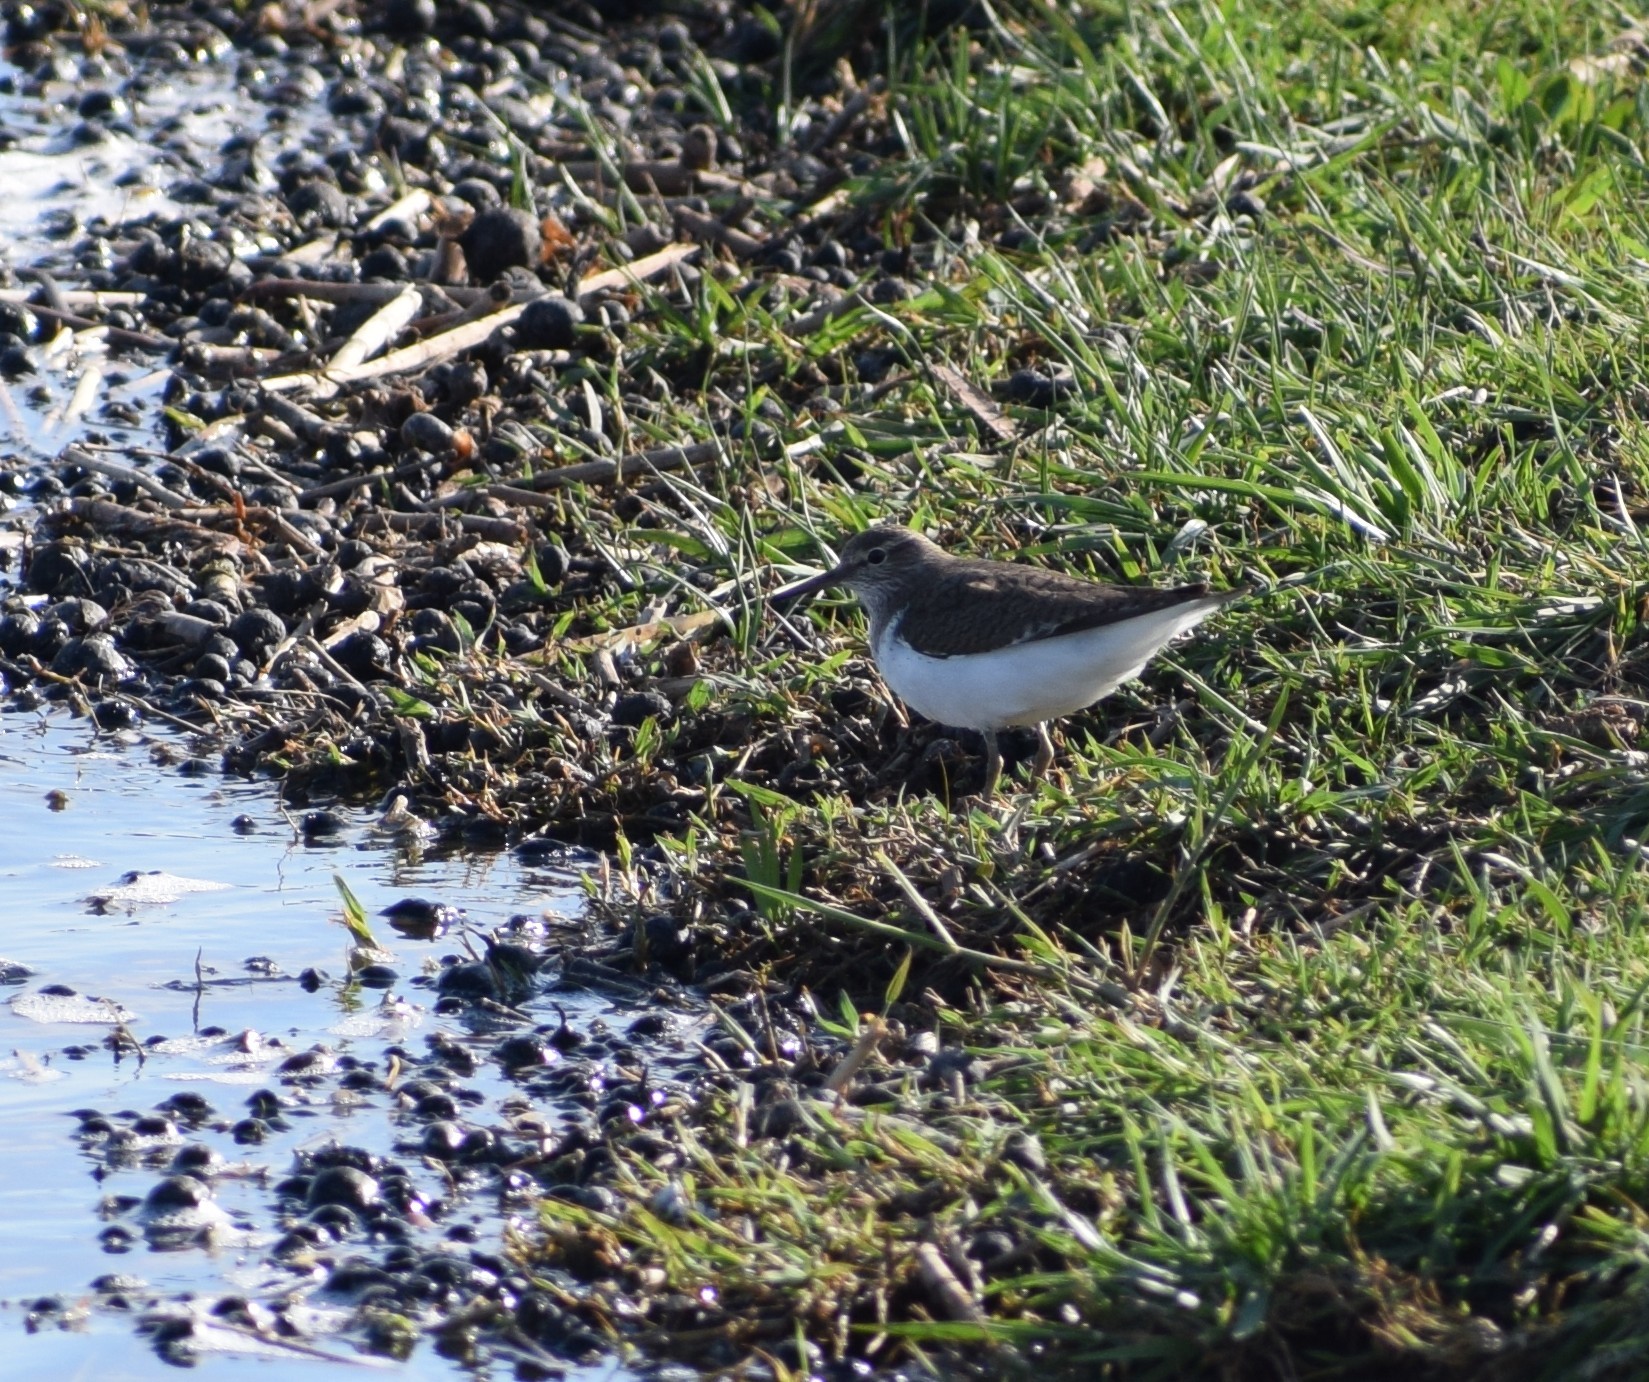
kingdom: Animalia
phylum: Chordata
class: Aves
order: Charadriiformes
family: Scolopacidae
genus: Actitis
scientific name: Actitis hypoleucos
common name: Common sandpiper
